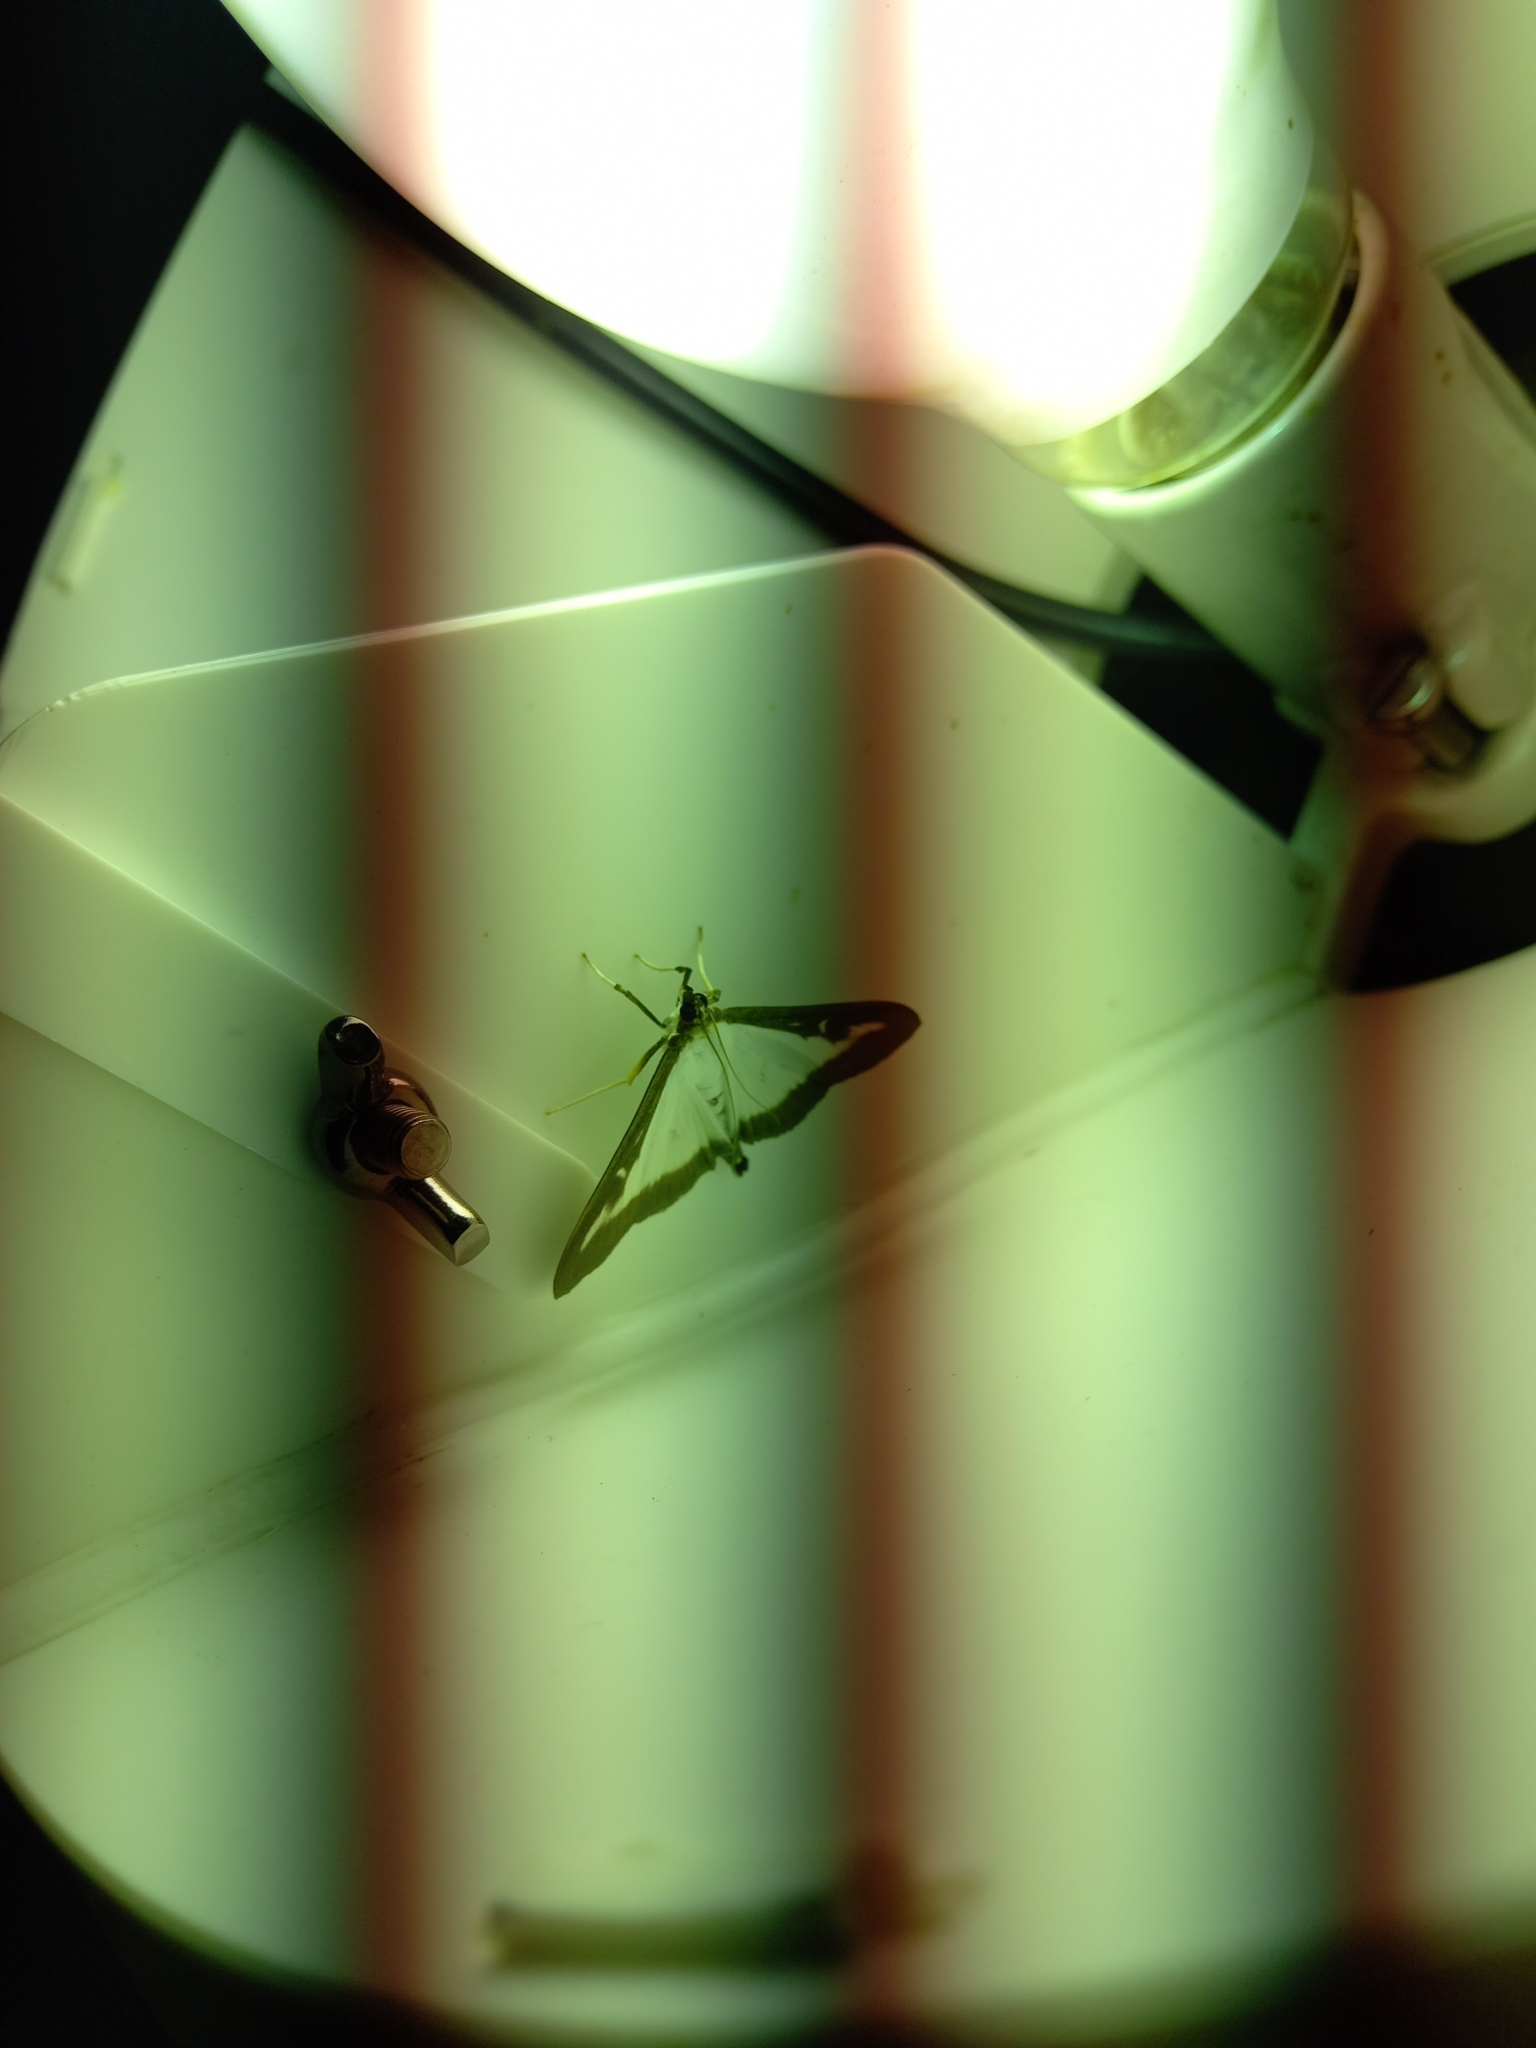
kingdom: Animalia
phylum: Arthropoda
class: Insecta
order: Lepidoptera
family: Crambidae
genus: Cydalima
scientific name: Cydalima perspectalis
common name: Box tree moth
